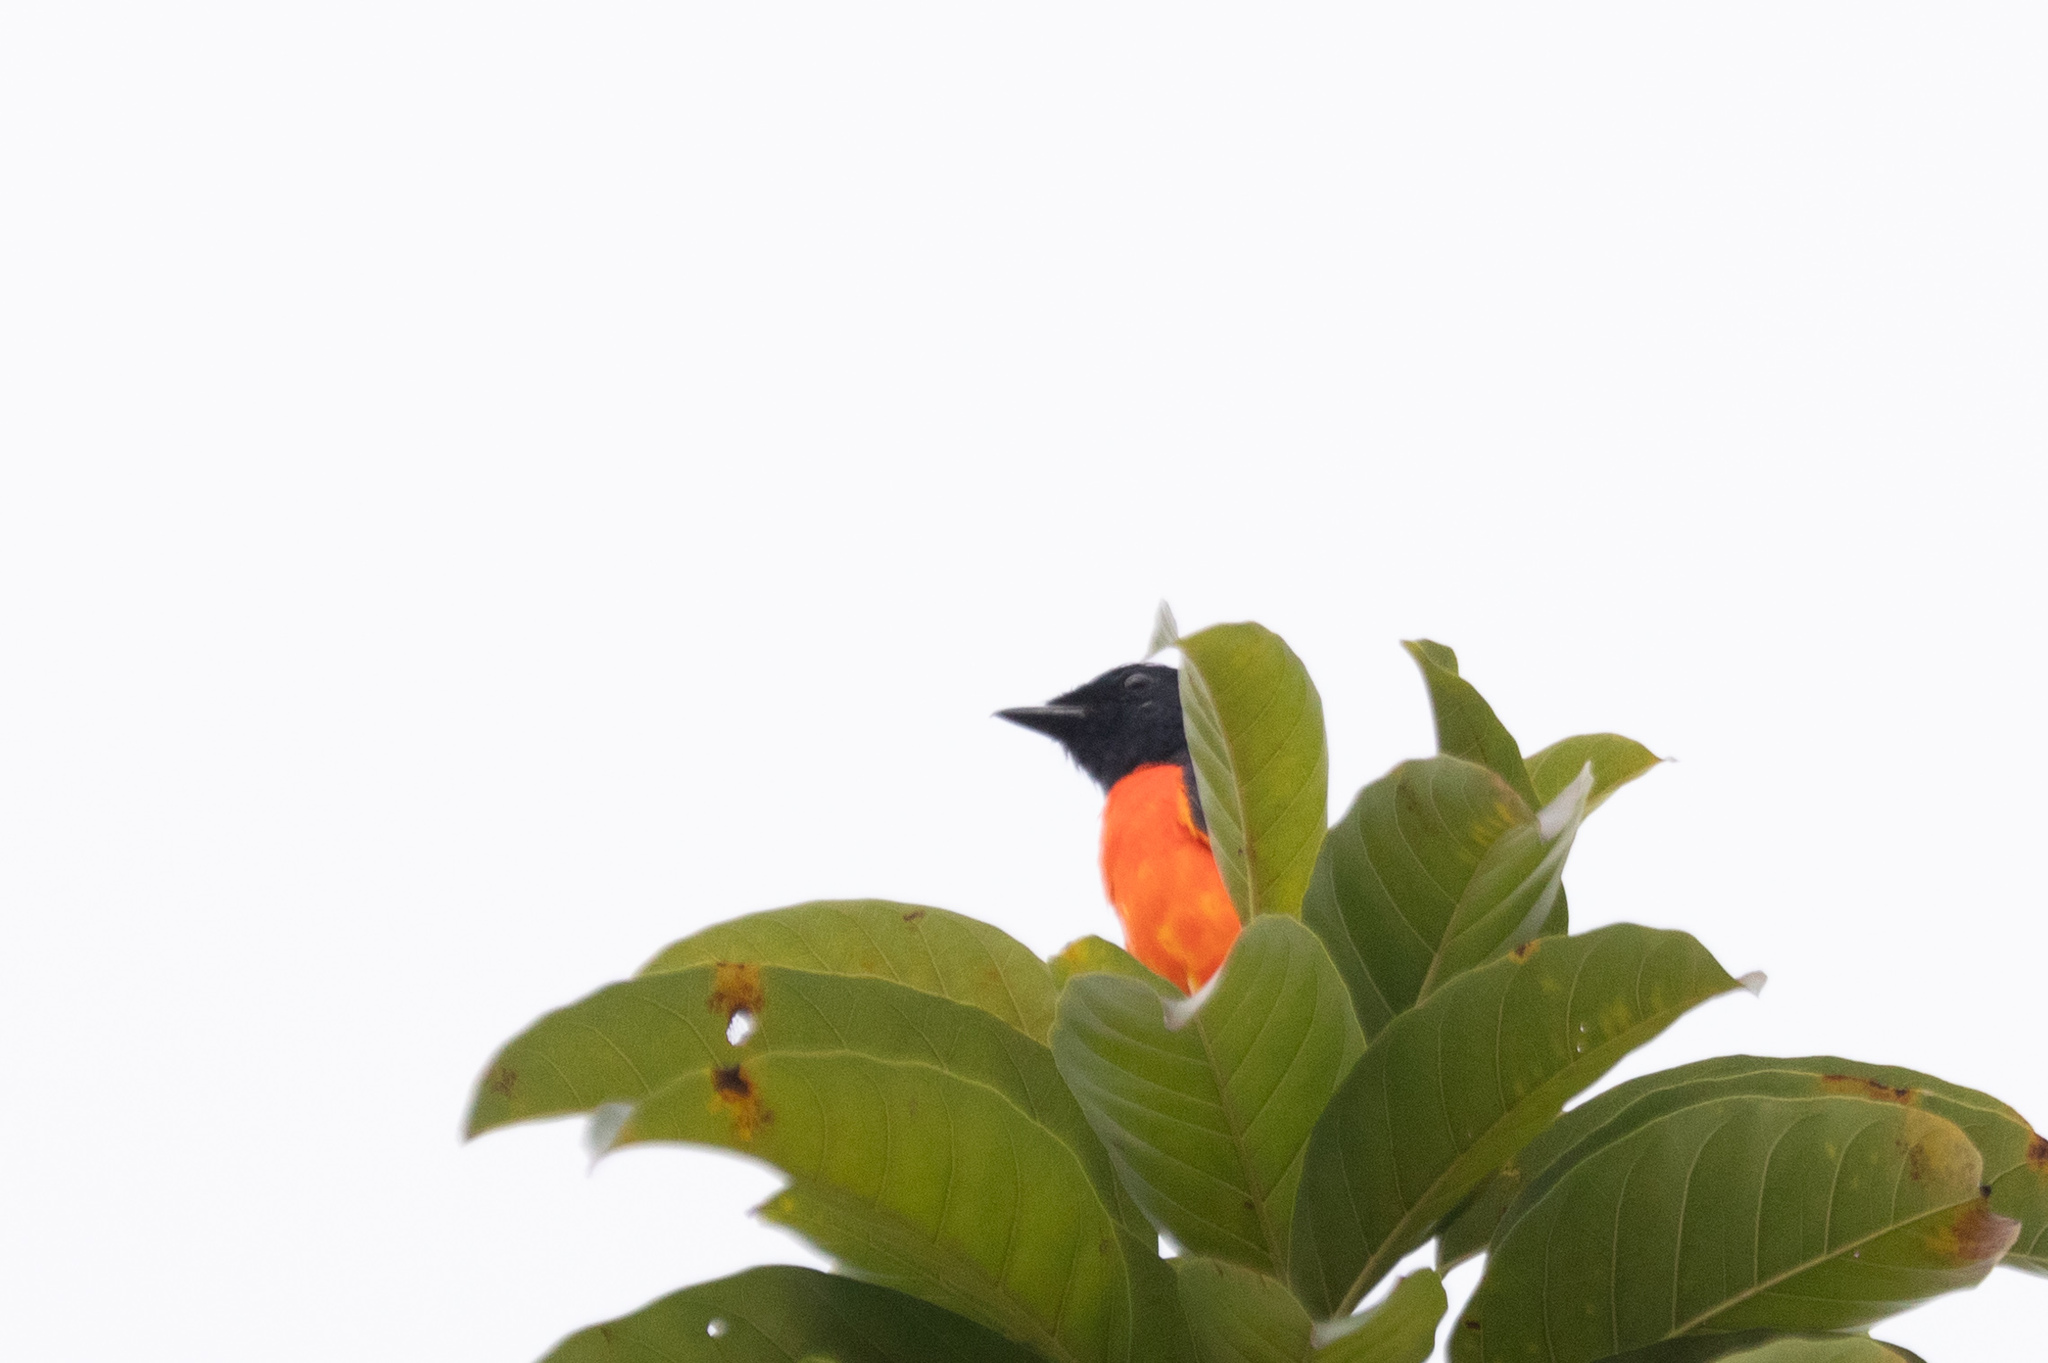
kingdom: Animalia
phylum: Chordata
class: Aves
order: Passeriformes
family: Campephagidae
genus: Pericrocotus
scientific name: Pericrocotus speciosus
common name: Scarlet minivet
